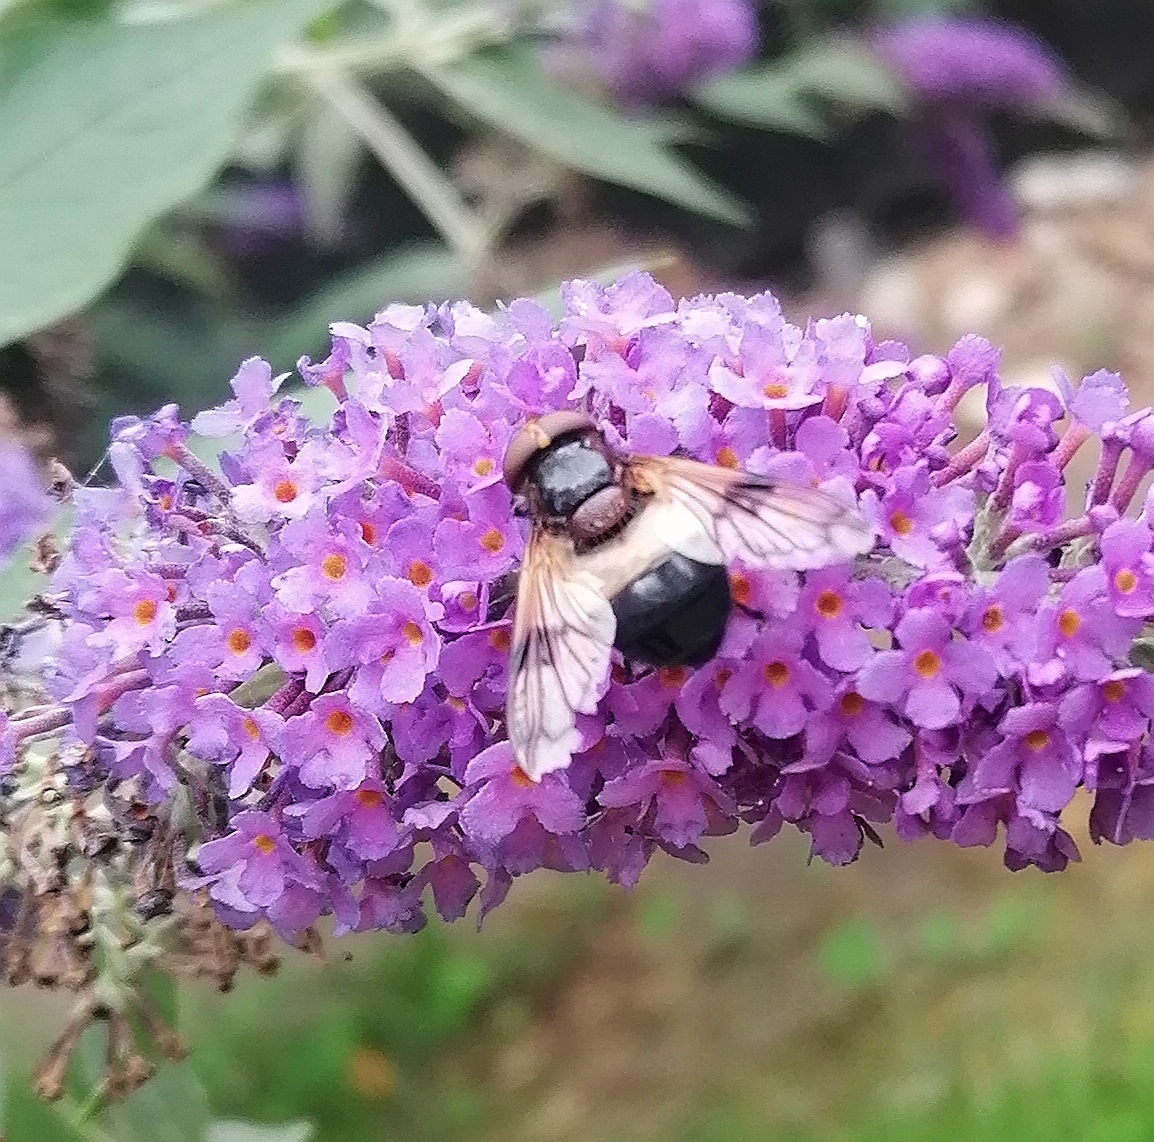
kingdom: Animalia
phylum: Arthropoda
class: Insecta
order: Diptera
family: Syrphidae
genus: Volucella
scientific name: Volucella pellucens
